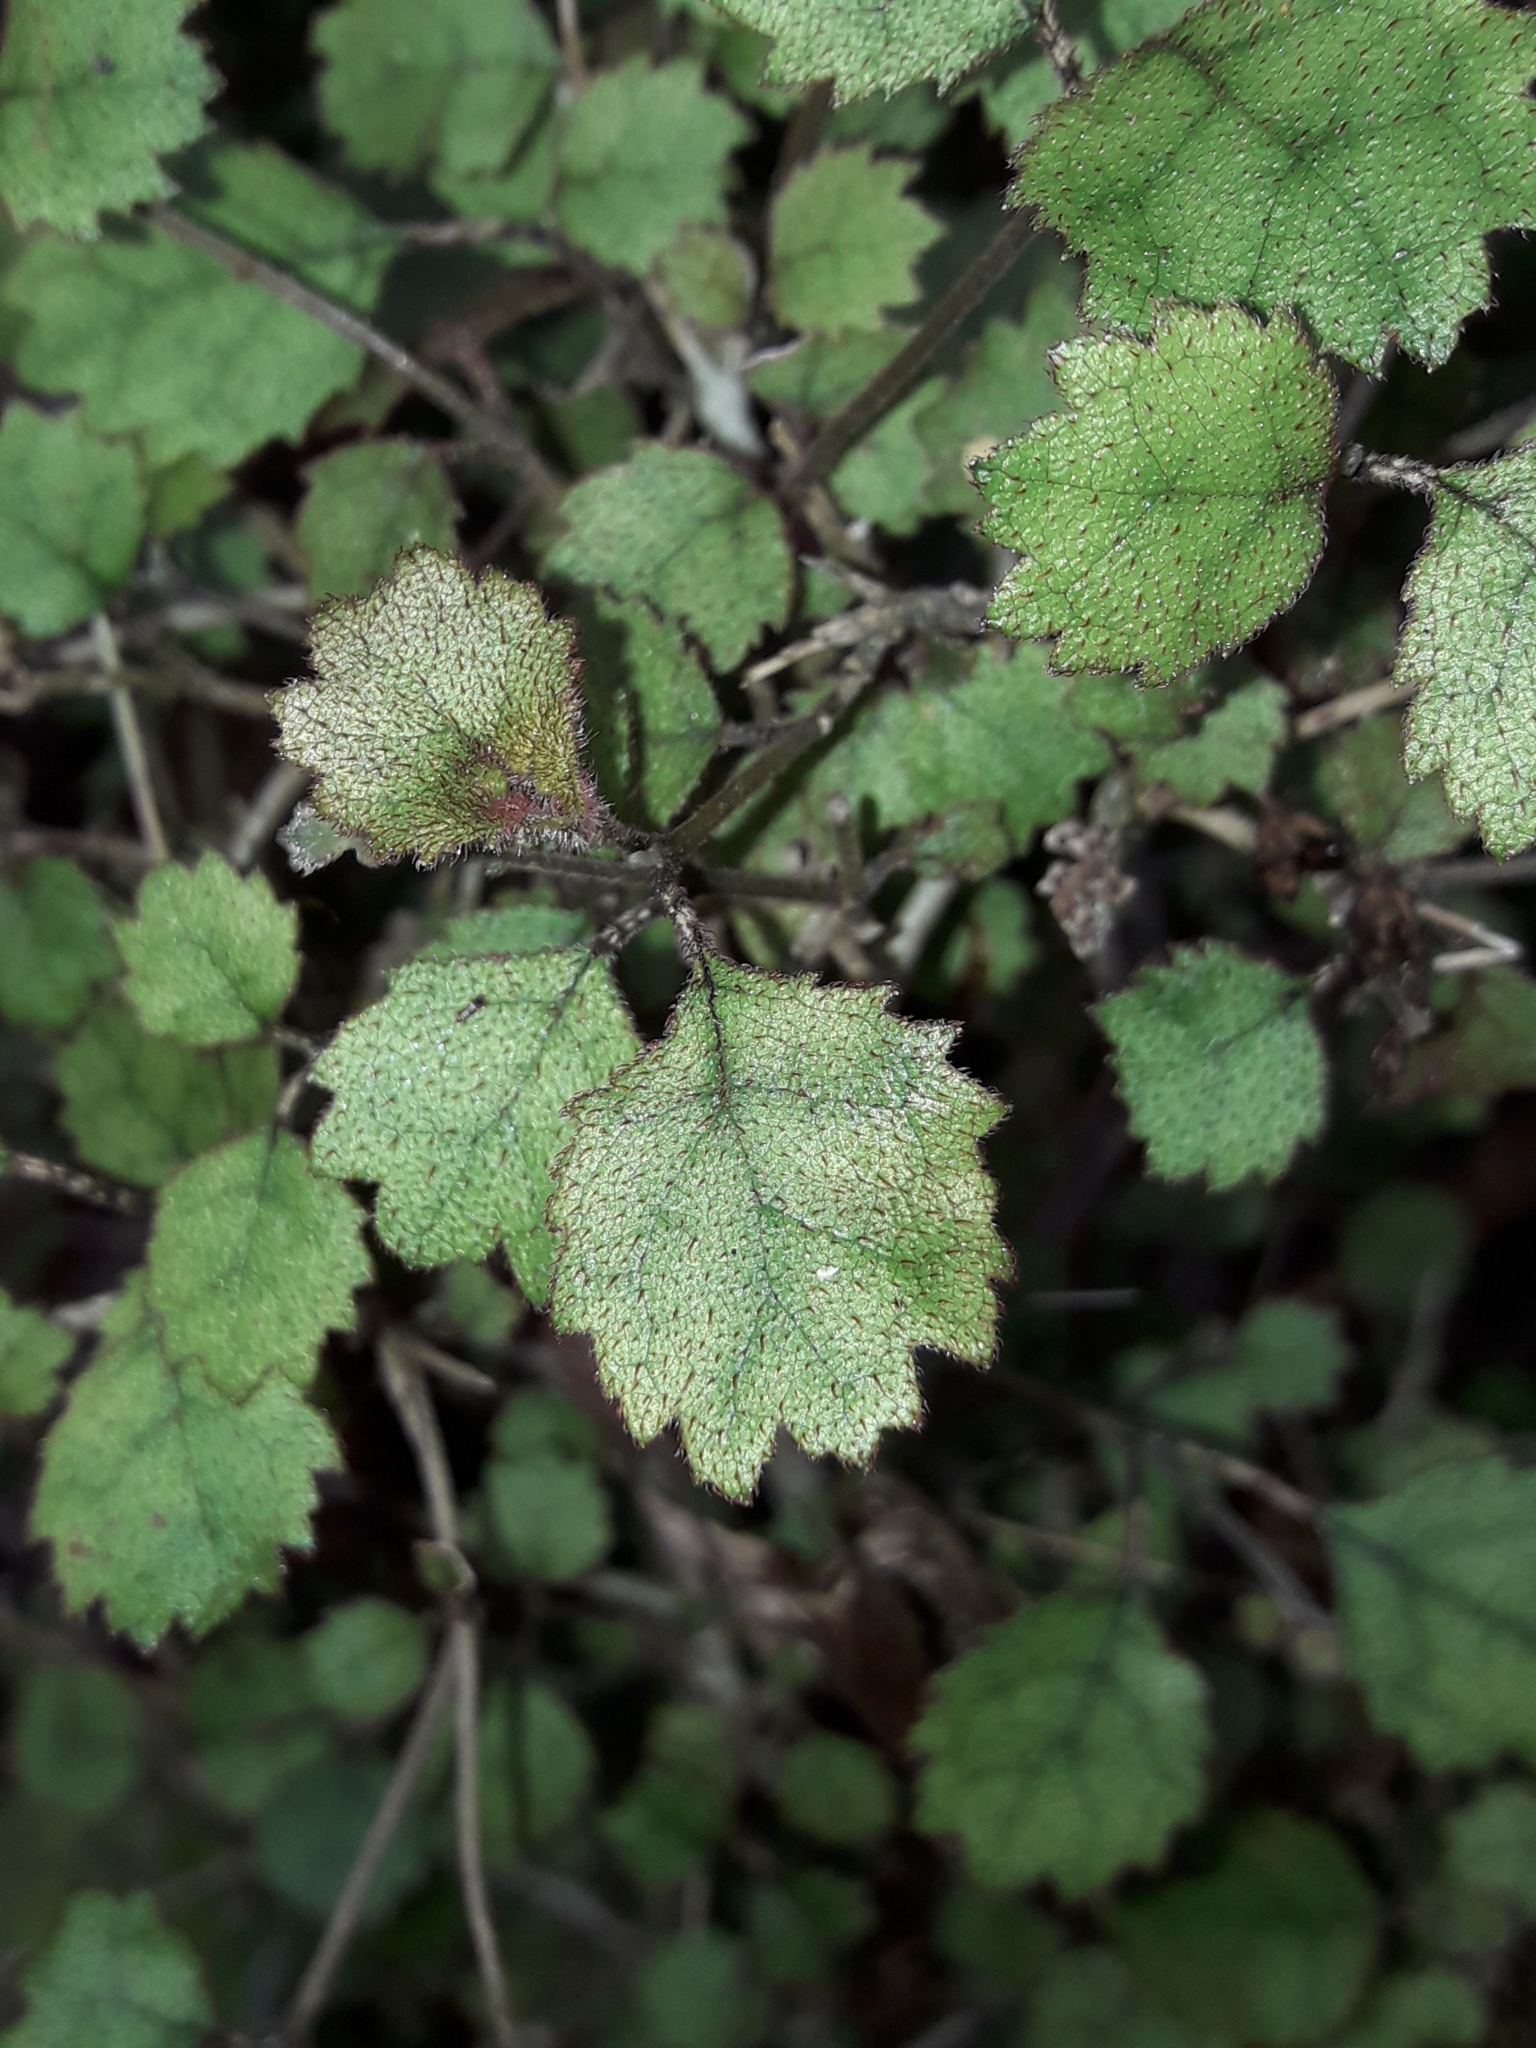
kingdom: Plantae
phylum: Tracheophyta
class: Magnoliopsida
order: Lamiales
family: Gesneriaceae
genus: Rhabdothamnus
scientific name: Rhabdothamnus solandri
